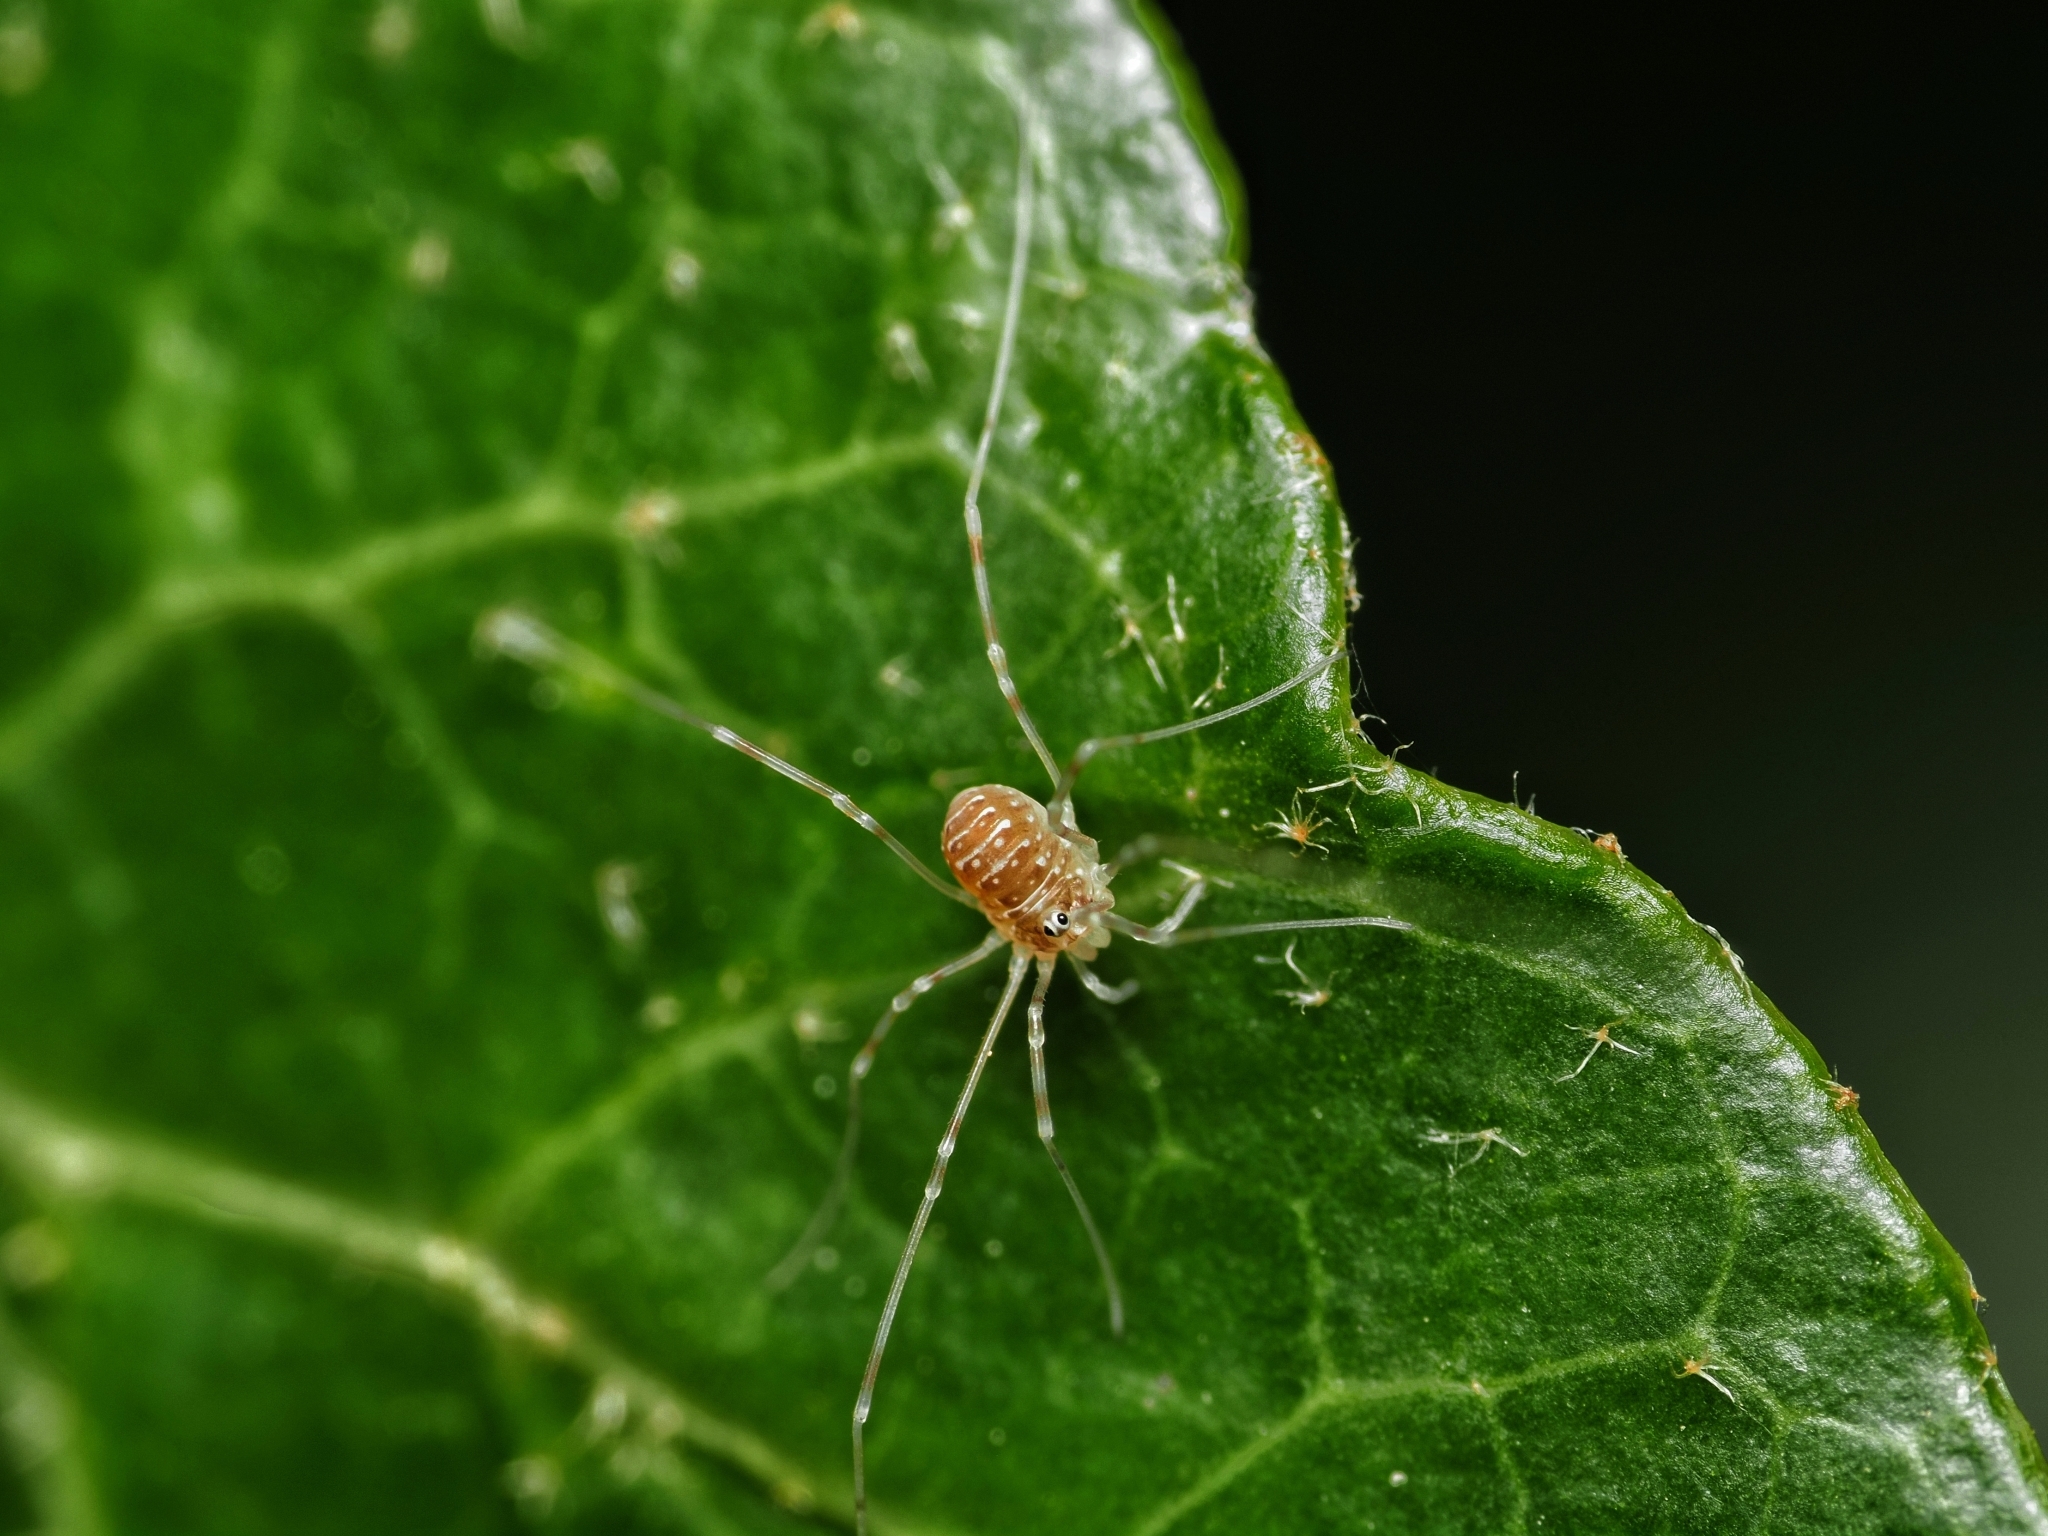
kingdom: Animalia
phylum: Arthropoda
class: Arachnida
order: Opiliones
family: Phalangiidae
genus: Opilio
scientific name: Opilio canestrinii
